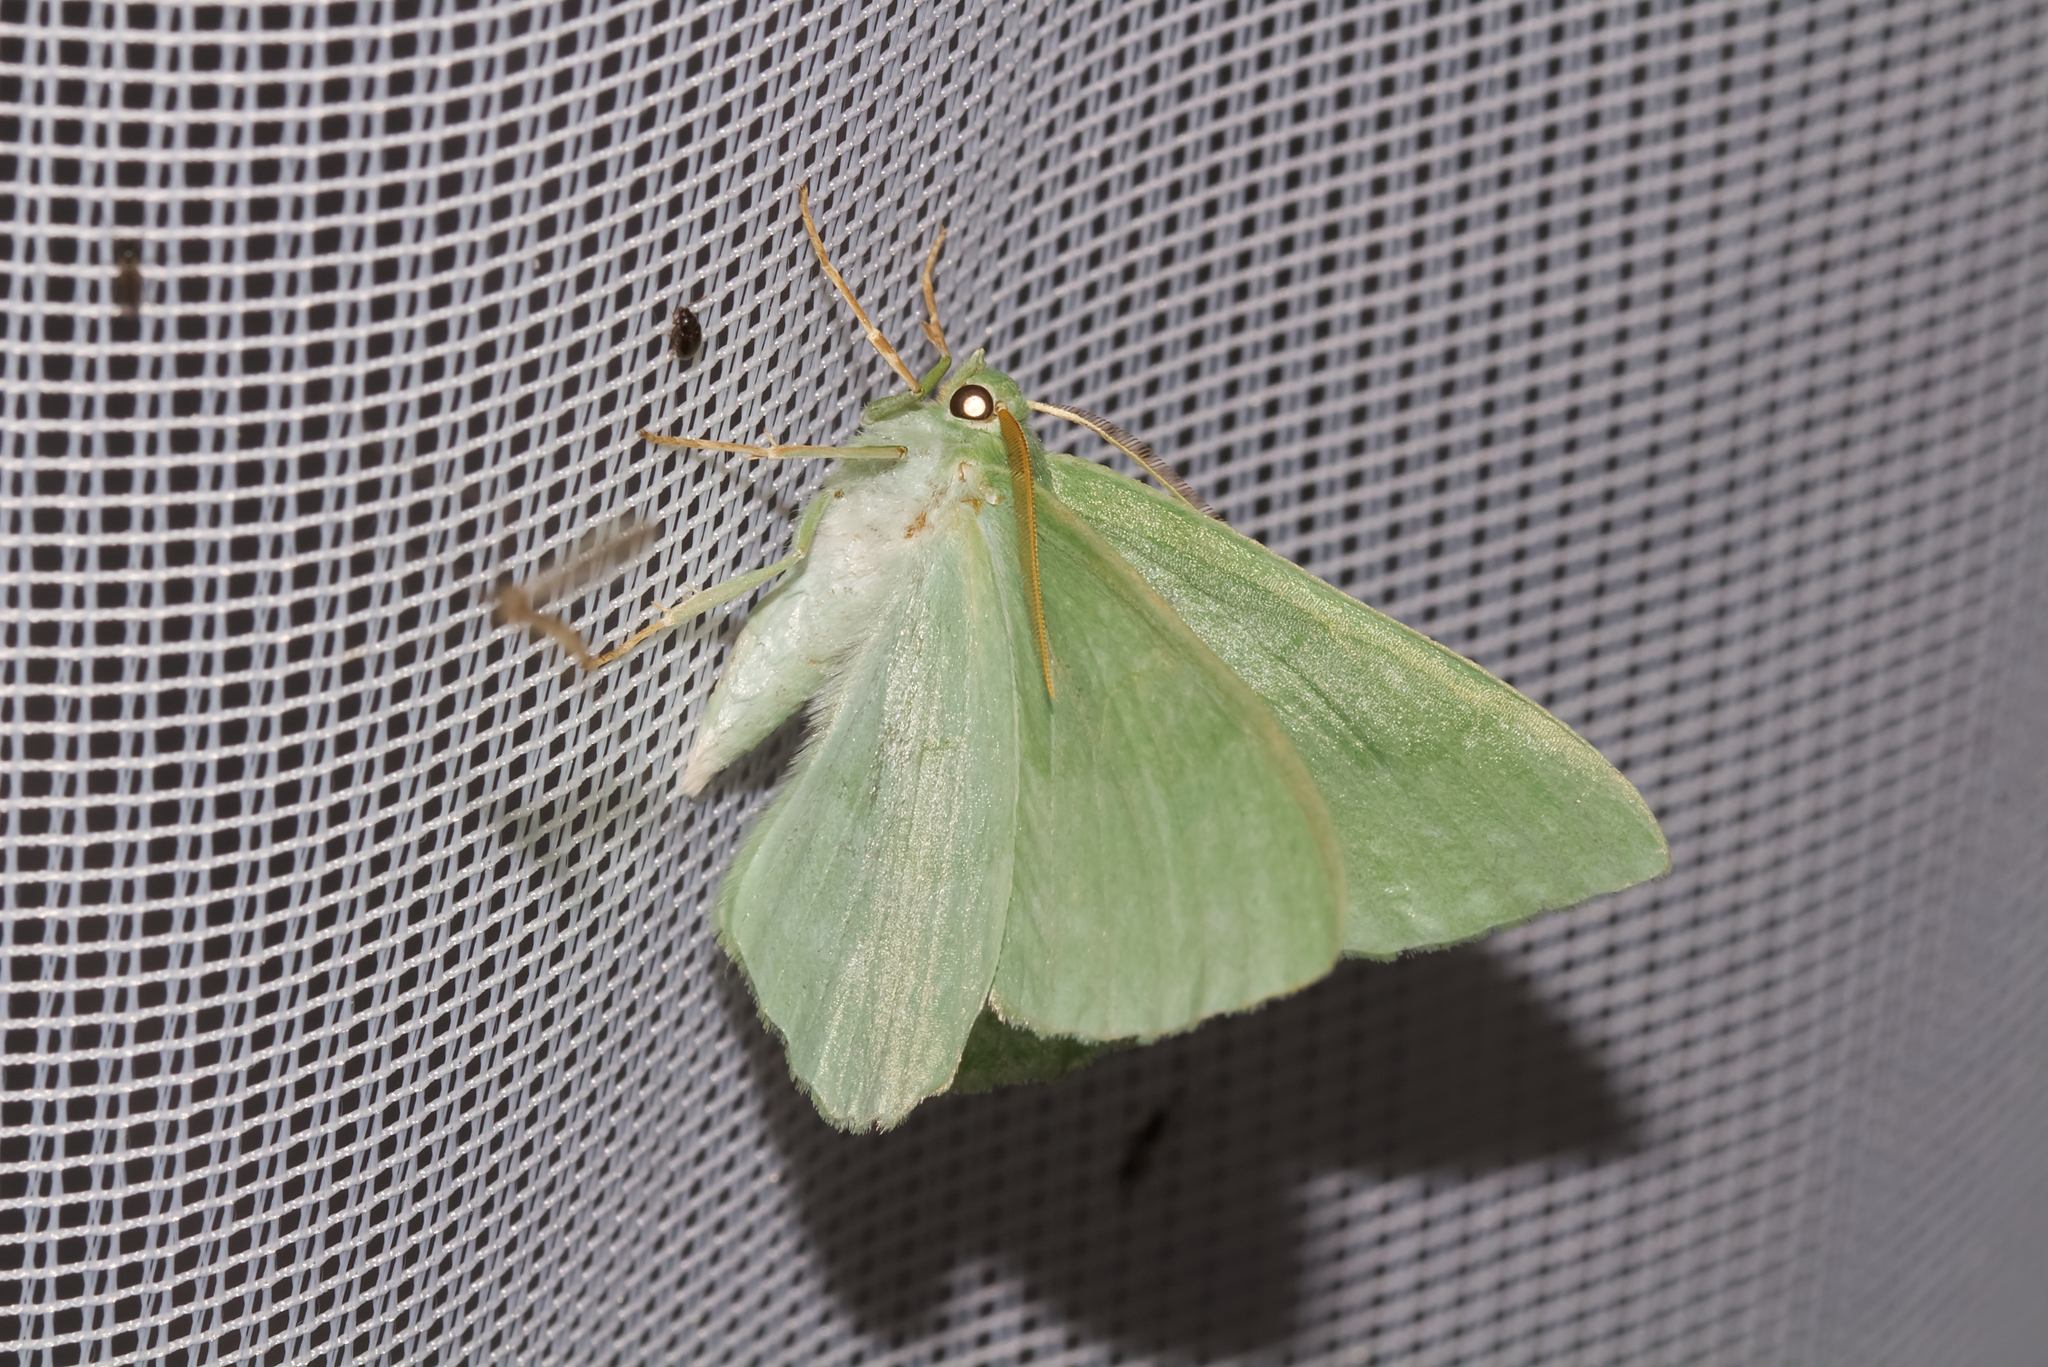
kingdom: Animalia
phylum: Arthropoda
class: Insecta
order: Lepidoptera
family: Geometridae
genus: Geometra
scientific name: Geometra papilionaria
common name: Large emerald
